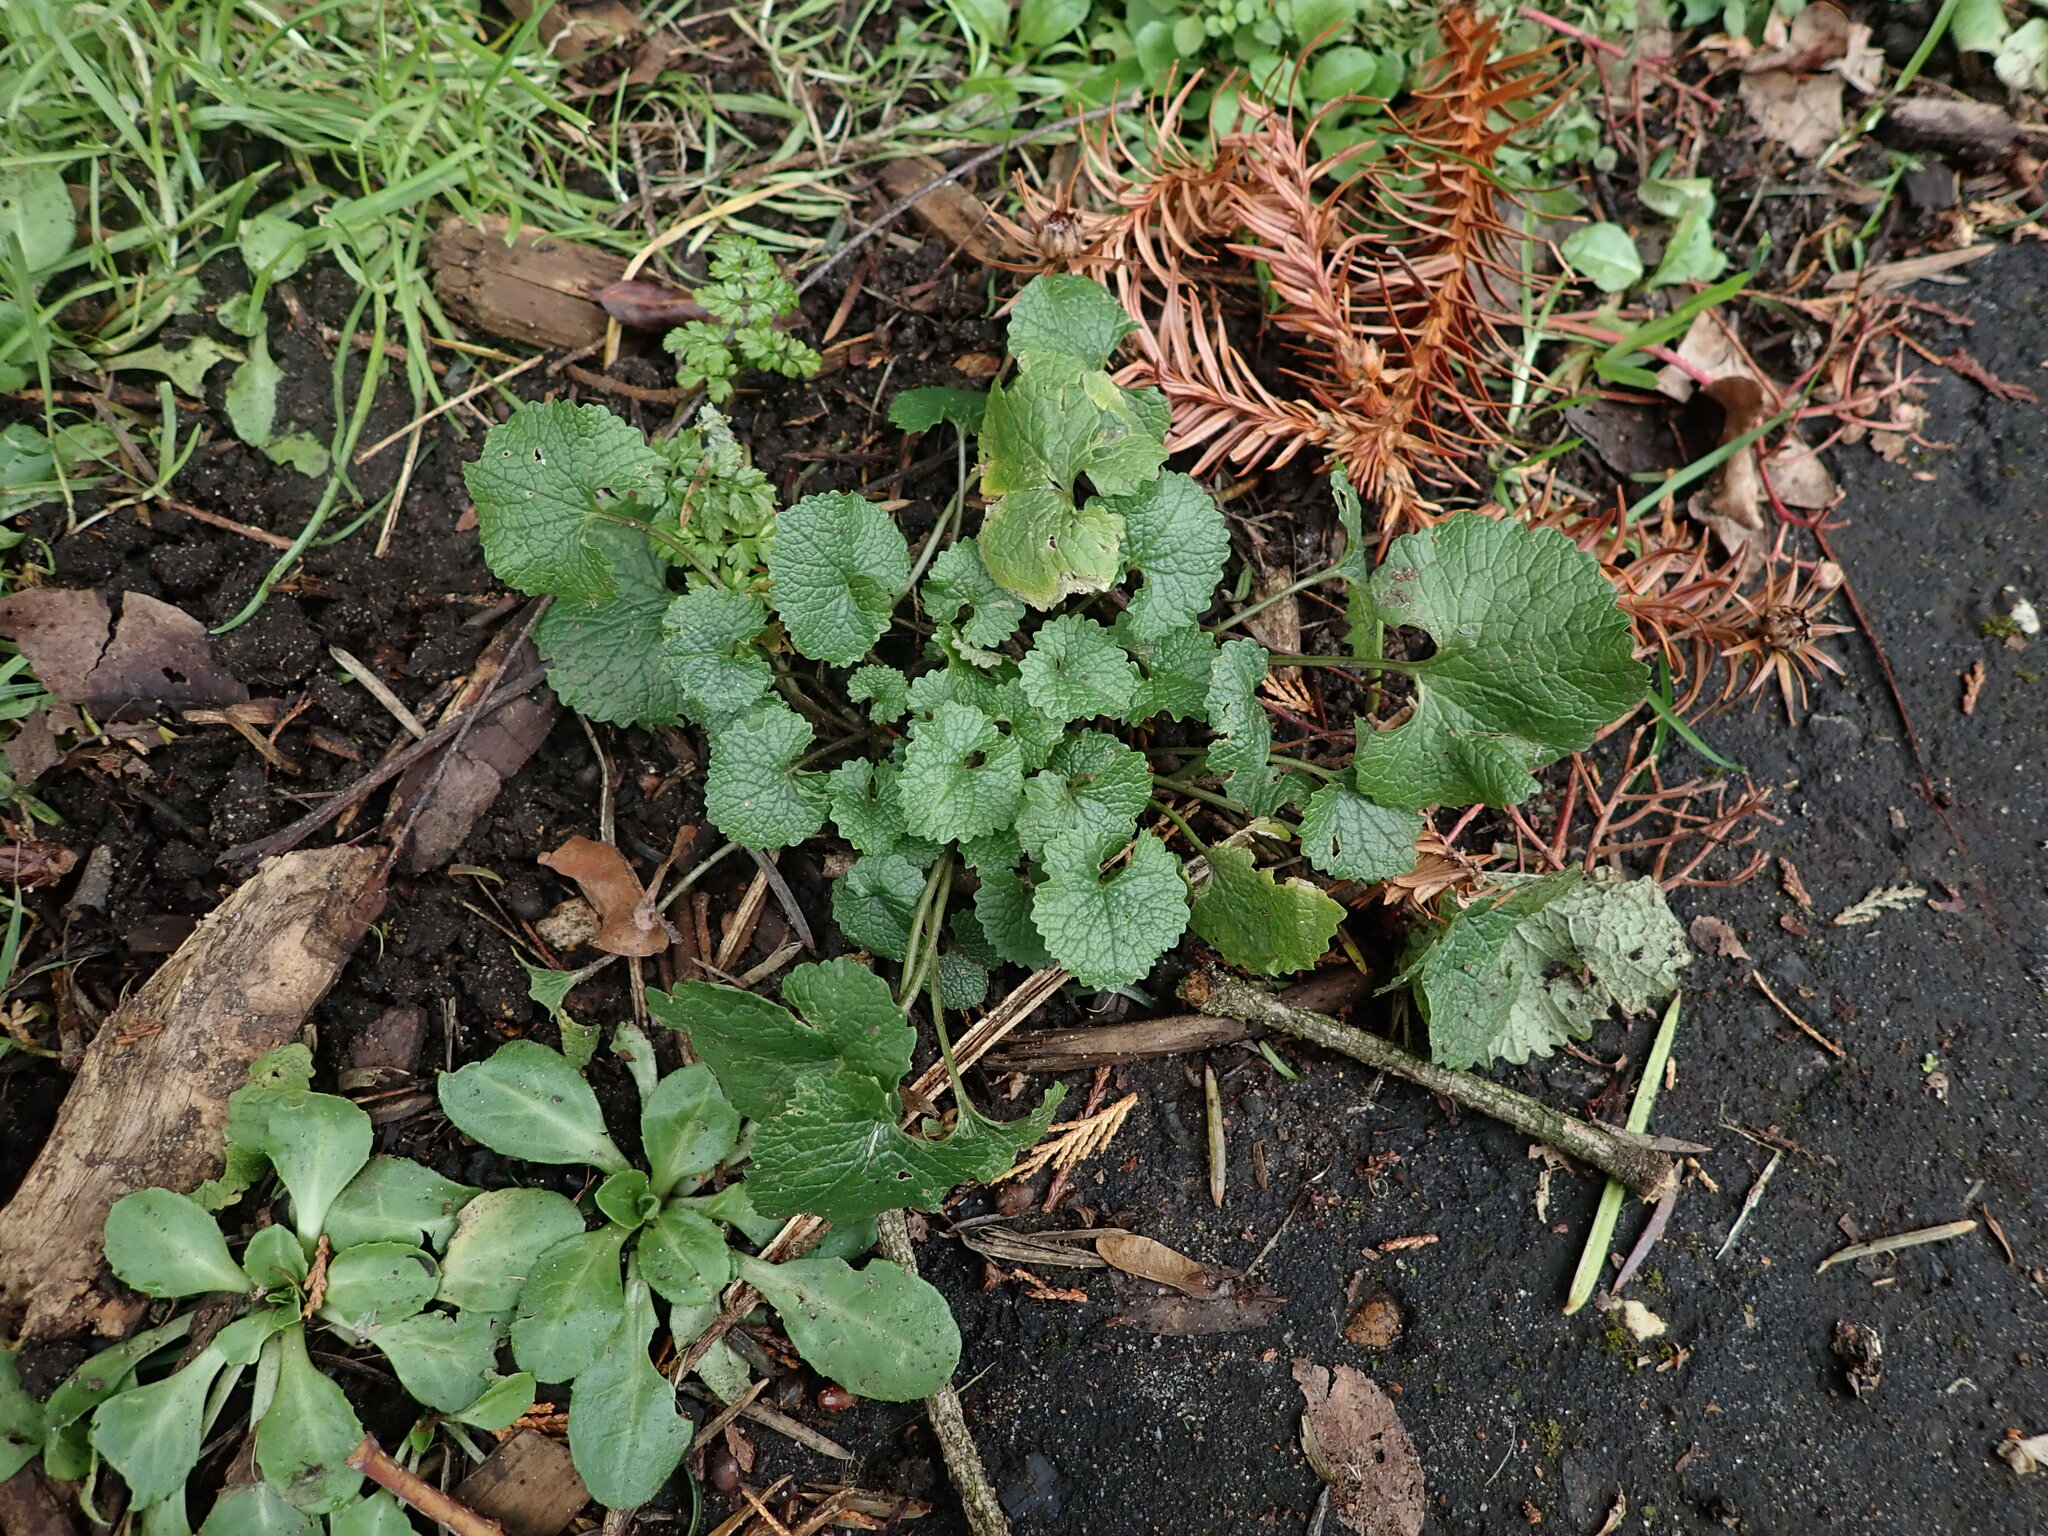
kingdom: Plantae
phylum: Tracheophyta
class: Magnoliopsida
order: Brassicales
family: Brassicaceae
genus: Alliaria
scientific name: Alliaria petiolata
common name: Garlic mustard
